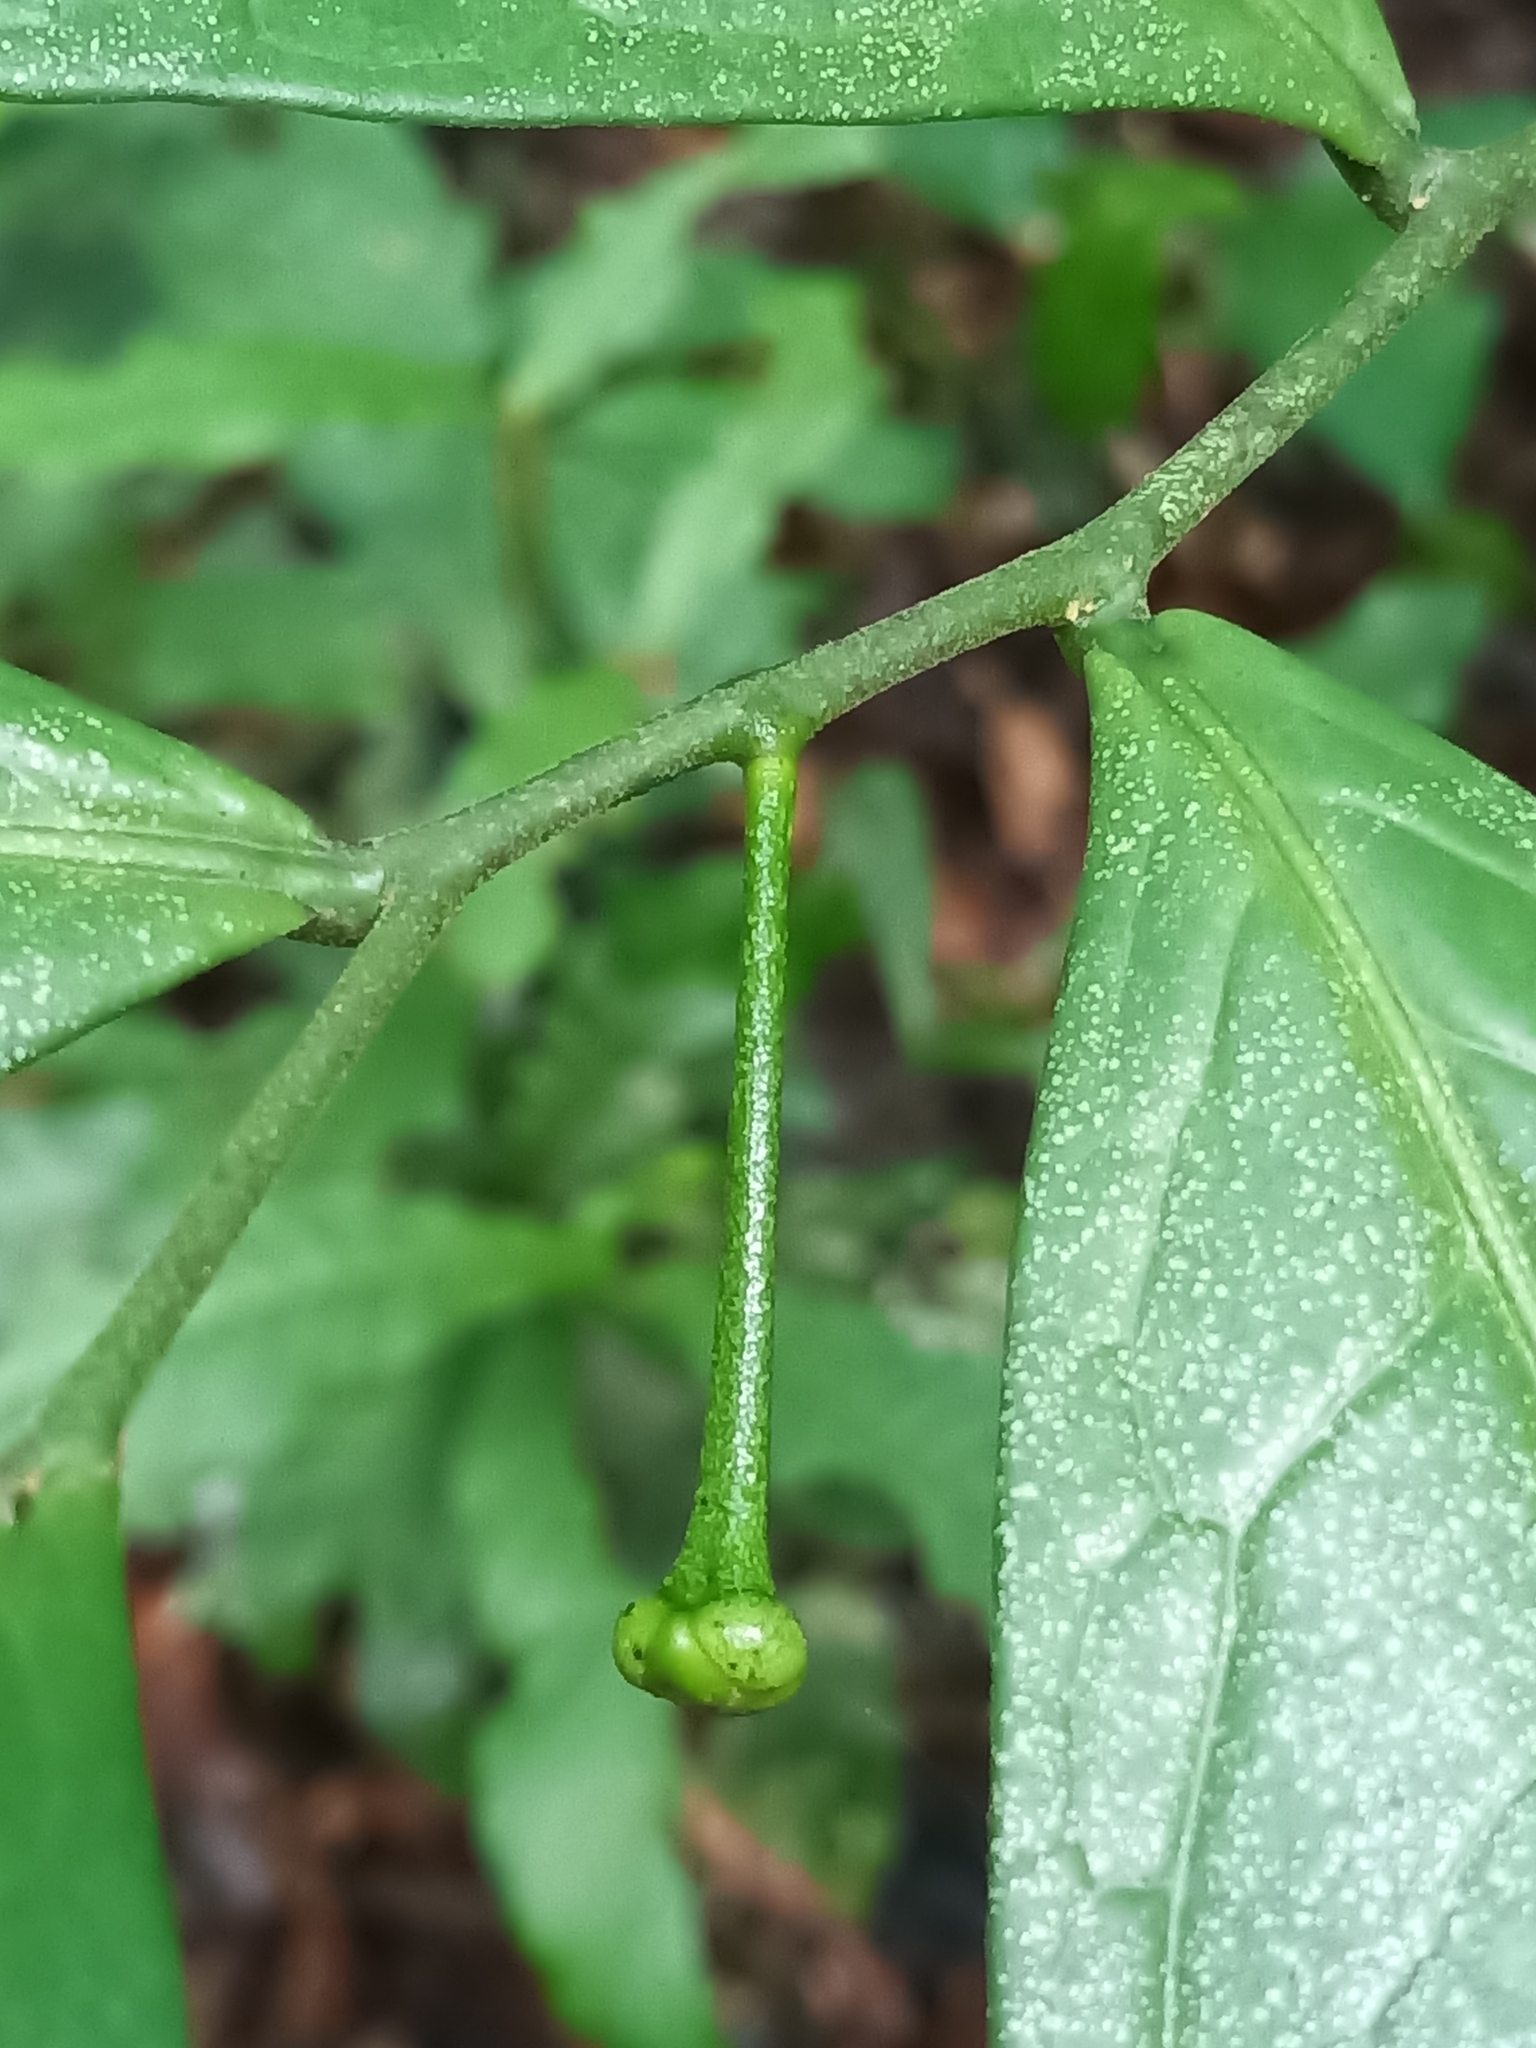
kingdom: Plantae
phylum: Tracheophyta
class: Magnoliopsida
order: Magnoliales
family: Annonaceae
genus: Cymbopetalum
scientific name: Cymbopetalum brasiliense
